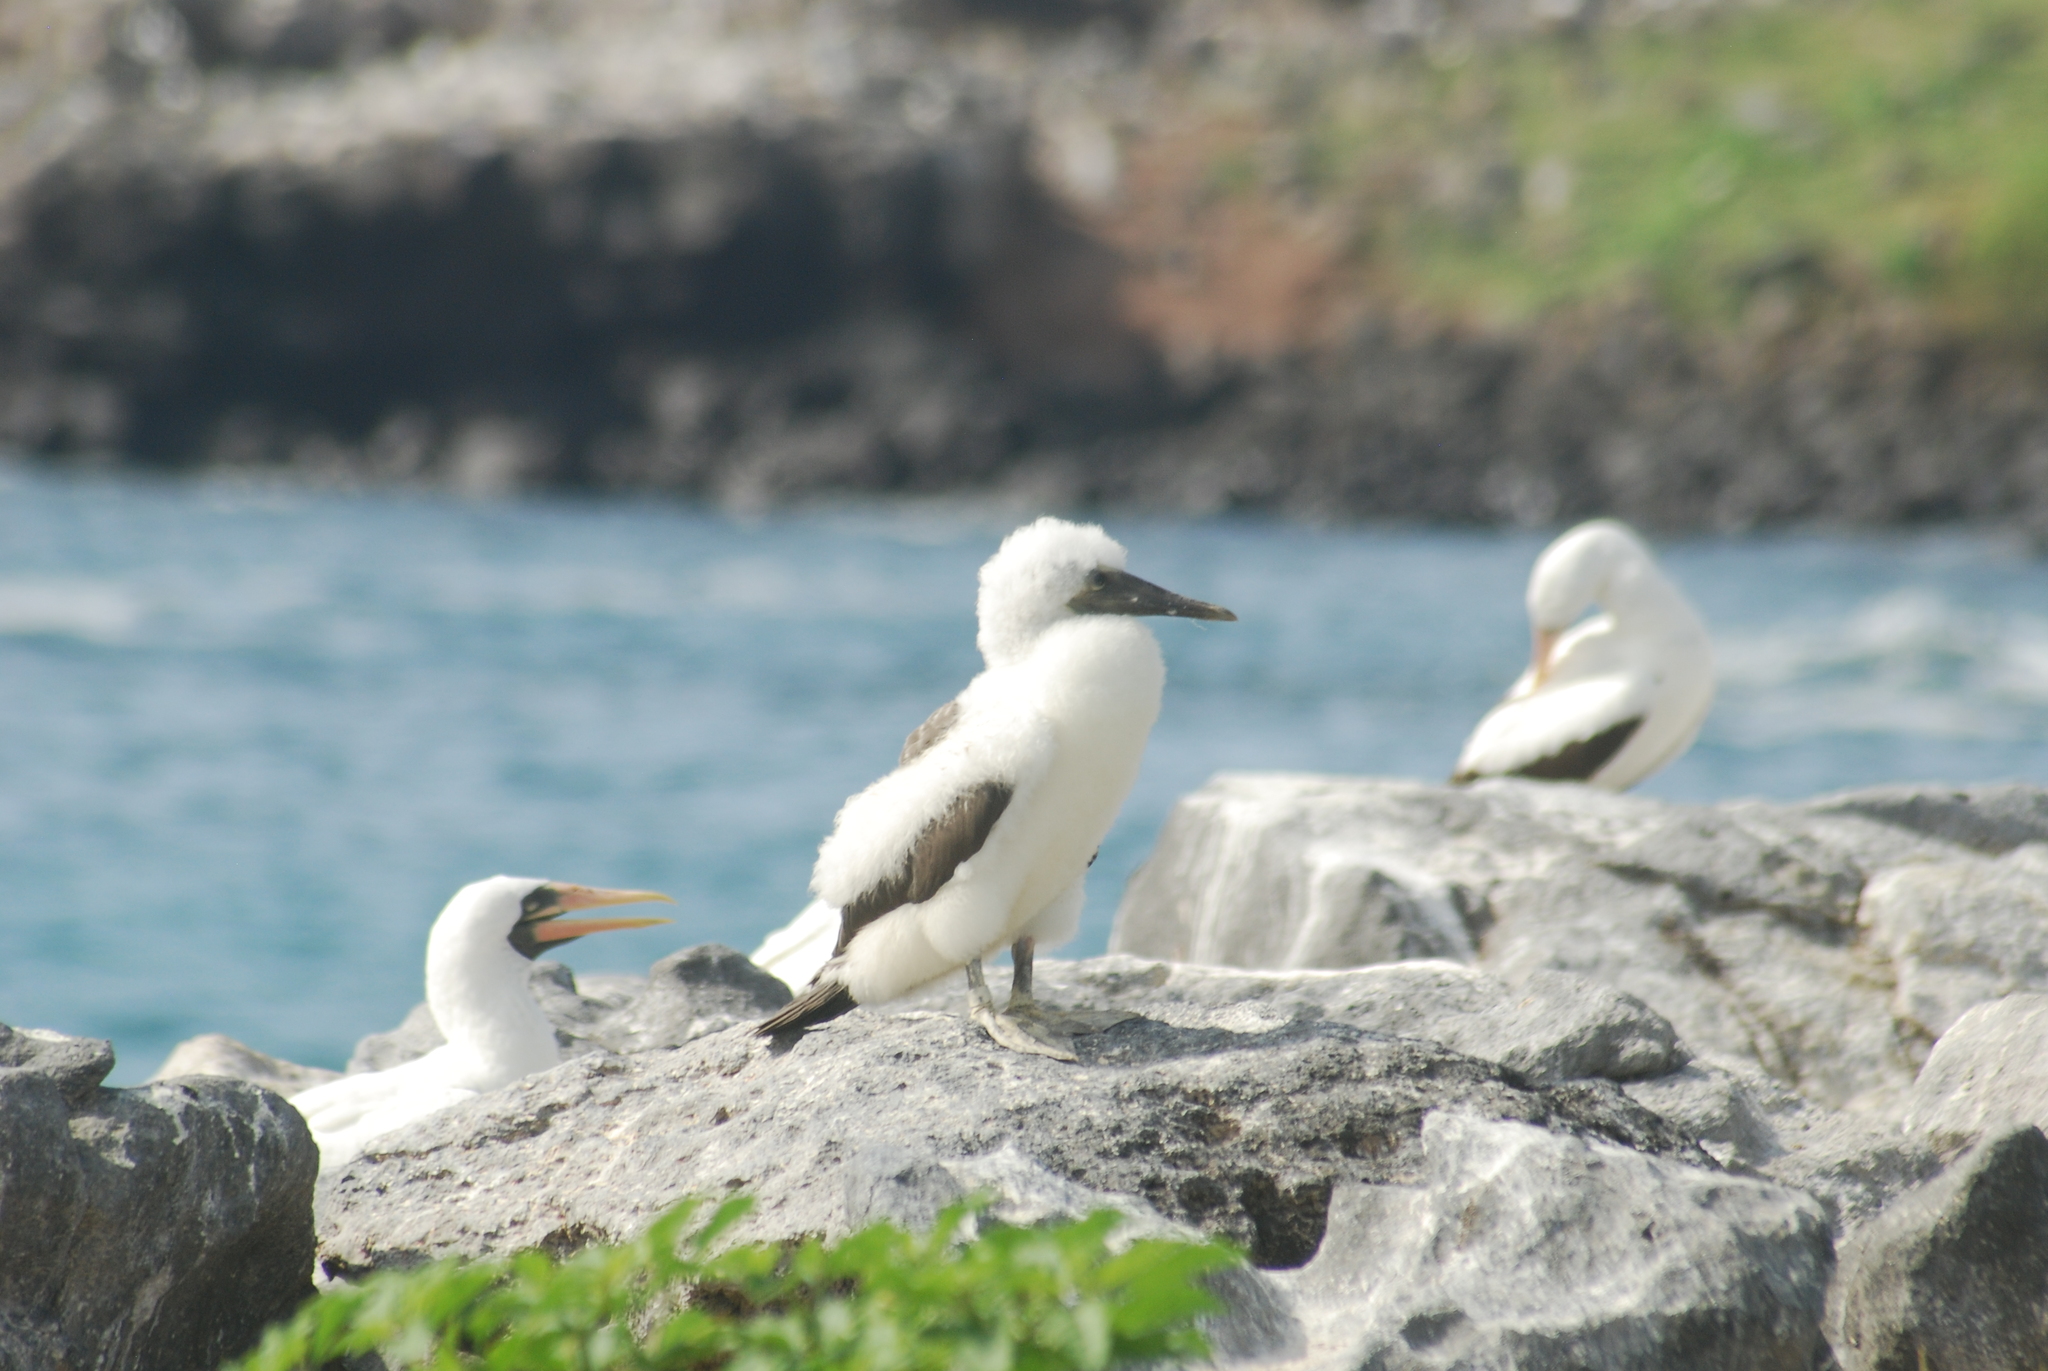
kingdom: Animalia
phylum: Chordata
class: Aves
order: Suliformes
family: Sulidae
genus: Sula
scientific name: Sula granti
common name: Nazca booby
